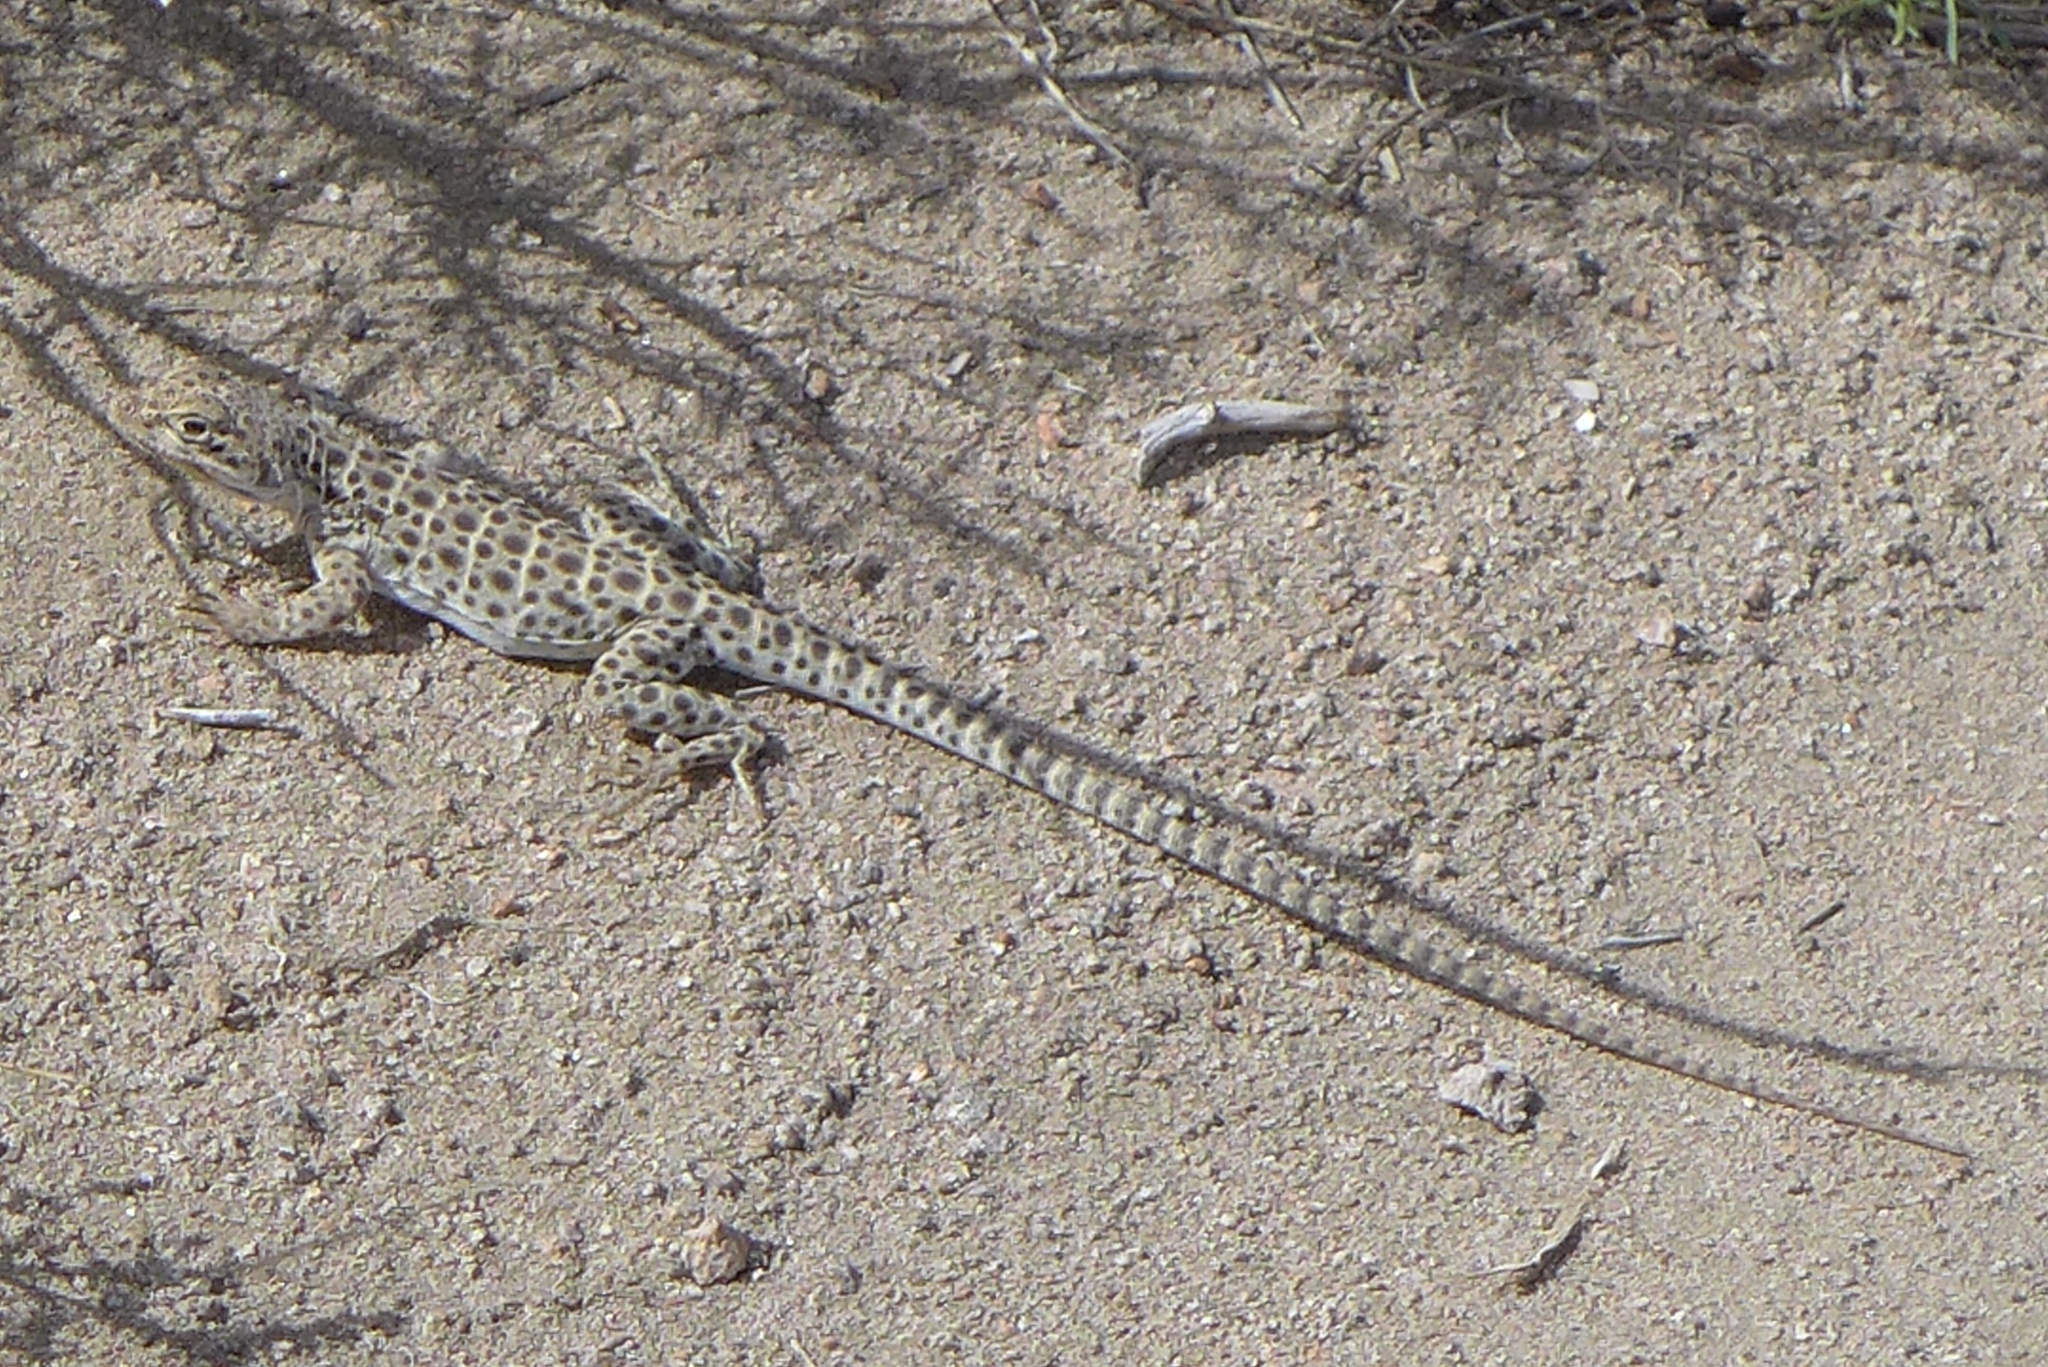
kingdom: Animalia
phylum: Chordata
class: Squamata
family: Crotaphytidae
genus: Gambelia
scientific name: Gambelia wislizenii
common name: Longnose leopard lizard
